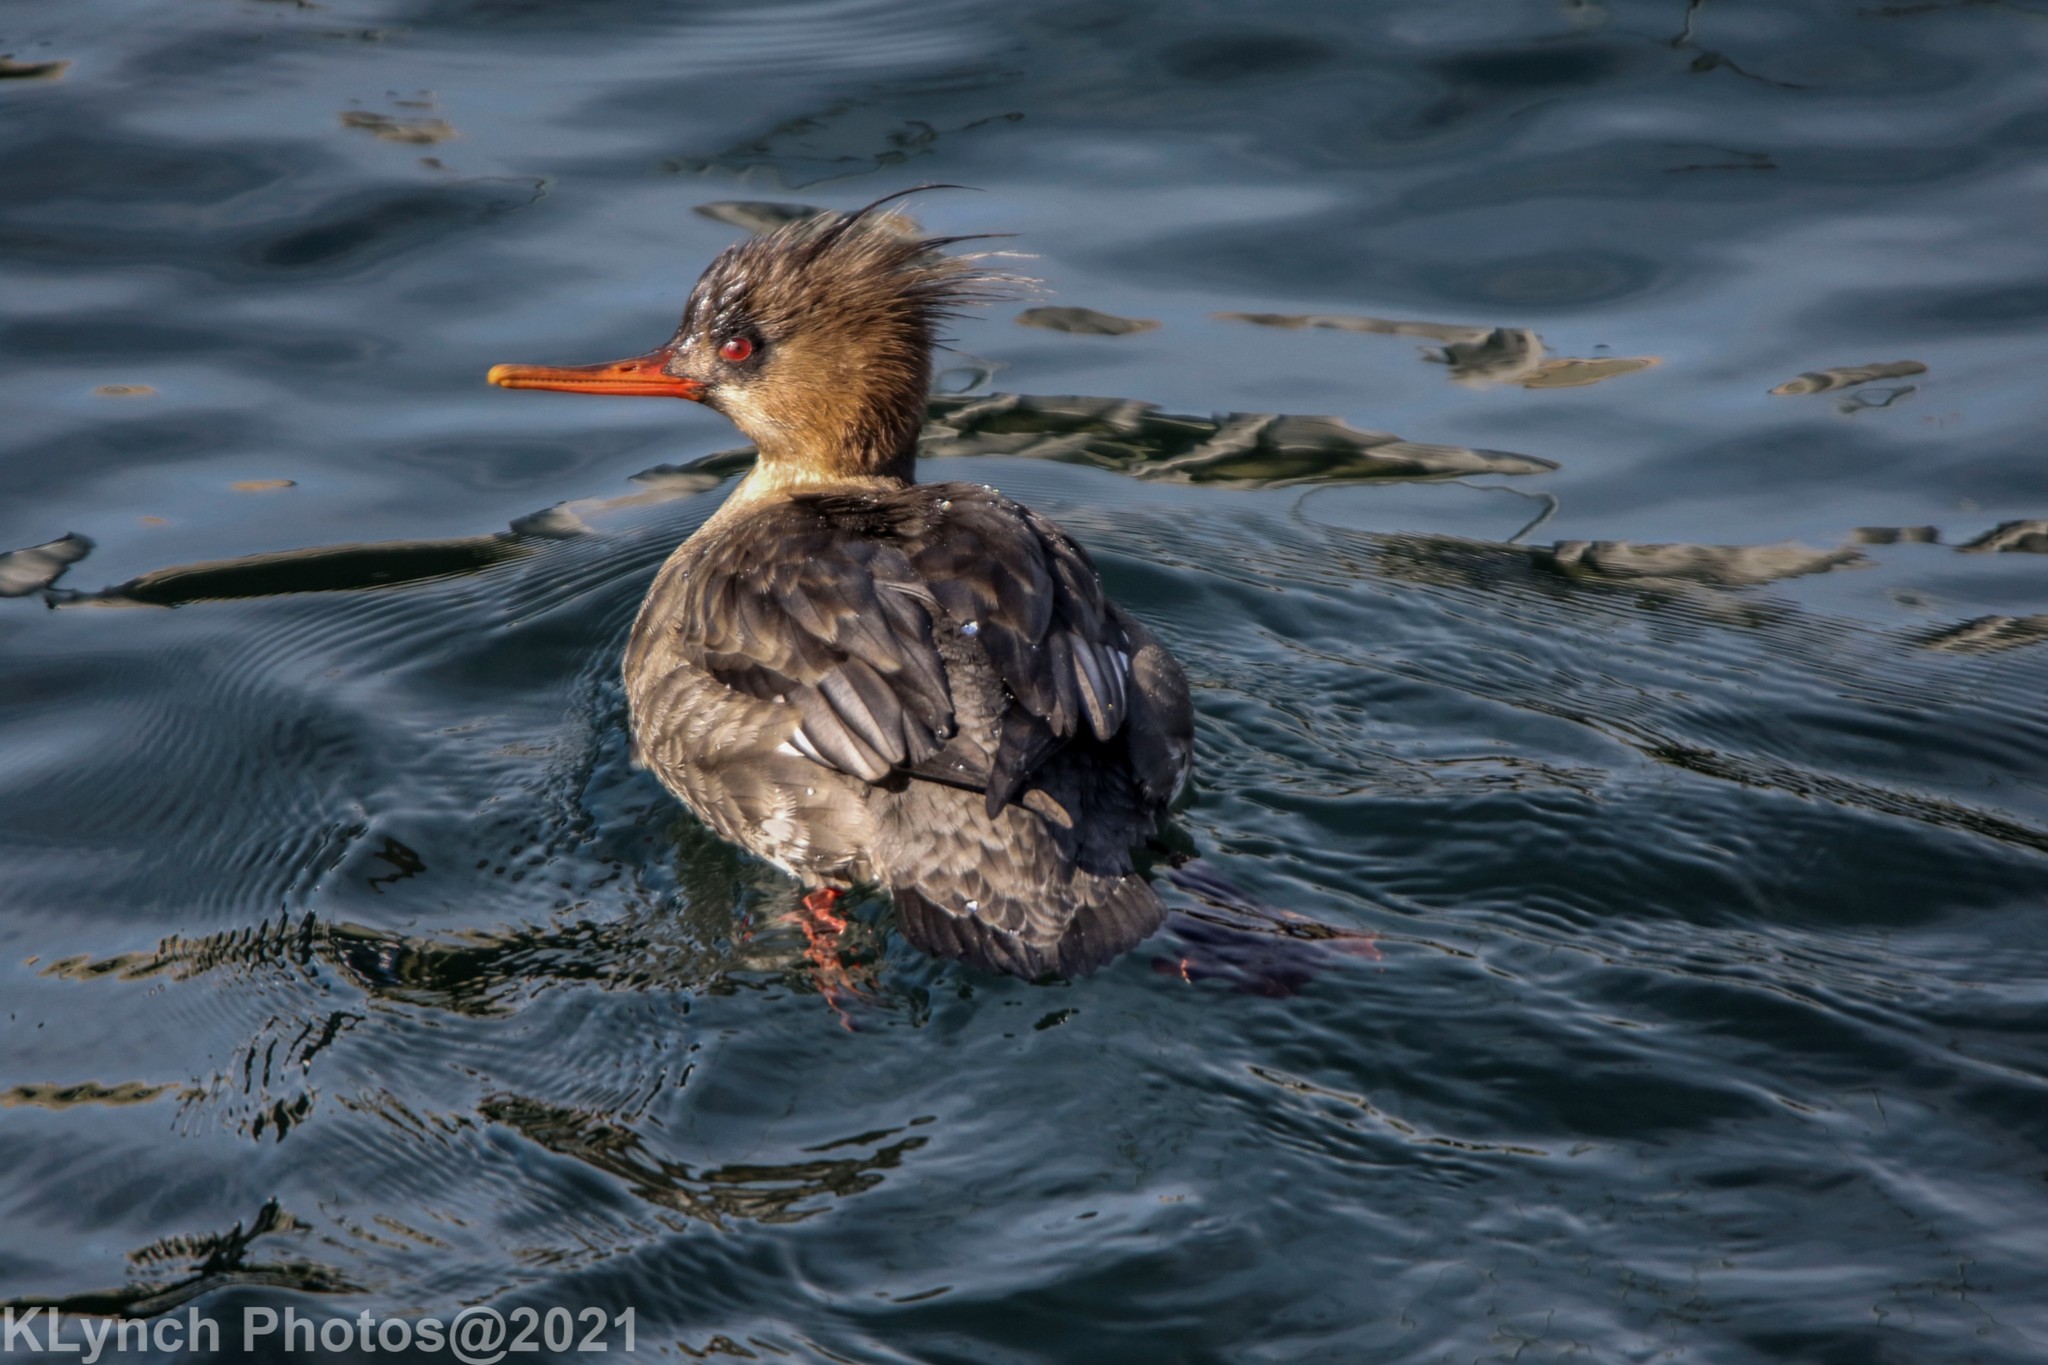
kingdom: Animalia
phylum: Chordata
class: Aves
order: Anseriformes
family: Anatidae
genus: Mergus
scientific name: Mergus serrator
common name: Red-breasted merganser
